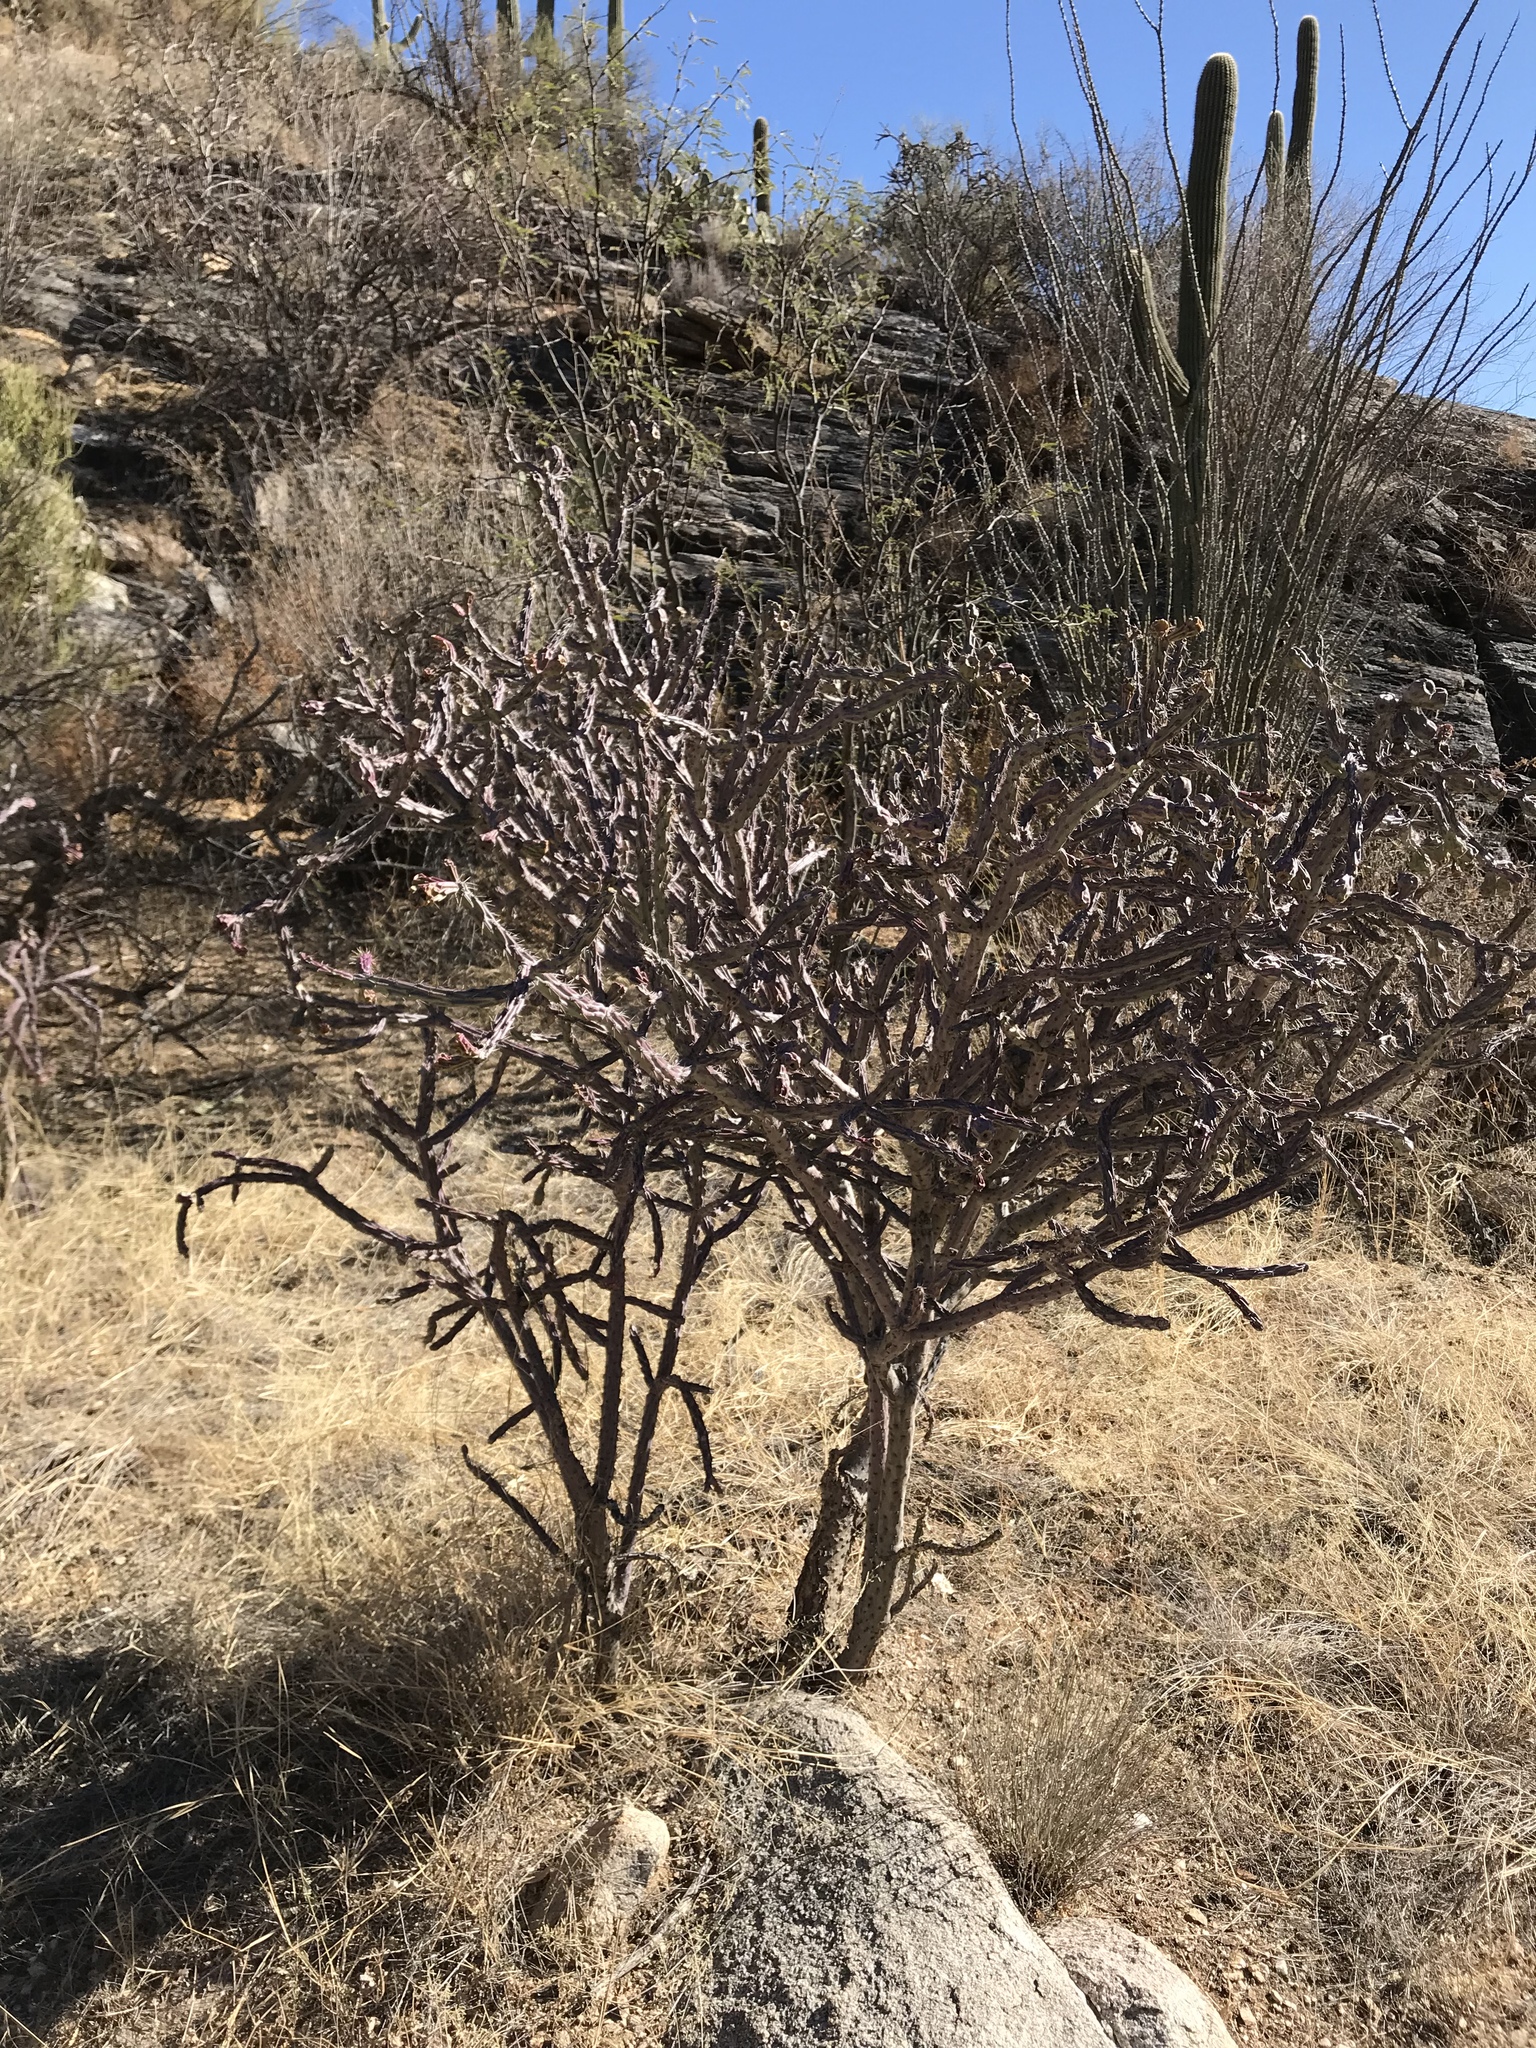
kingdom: Plantae
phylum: Tracheophyta
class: Magnoliopsida
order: Caryophyllales
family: Cactaceae
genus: Cylindropuntia
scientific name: Cylindropuntia thurberi
